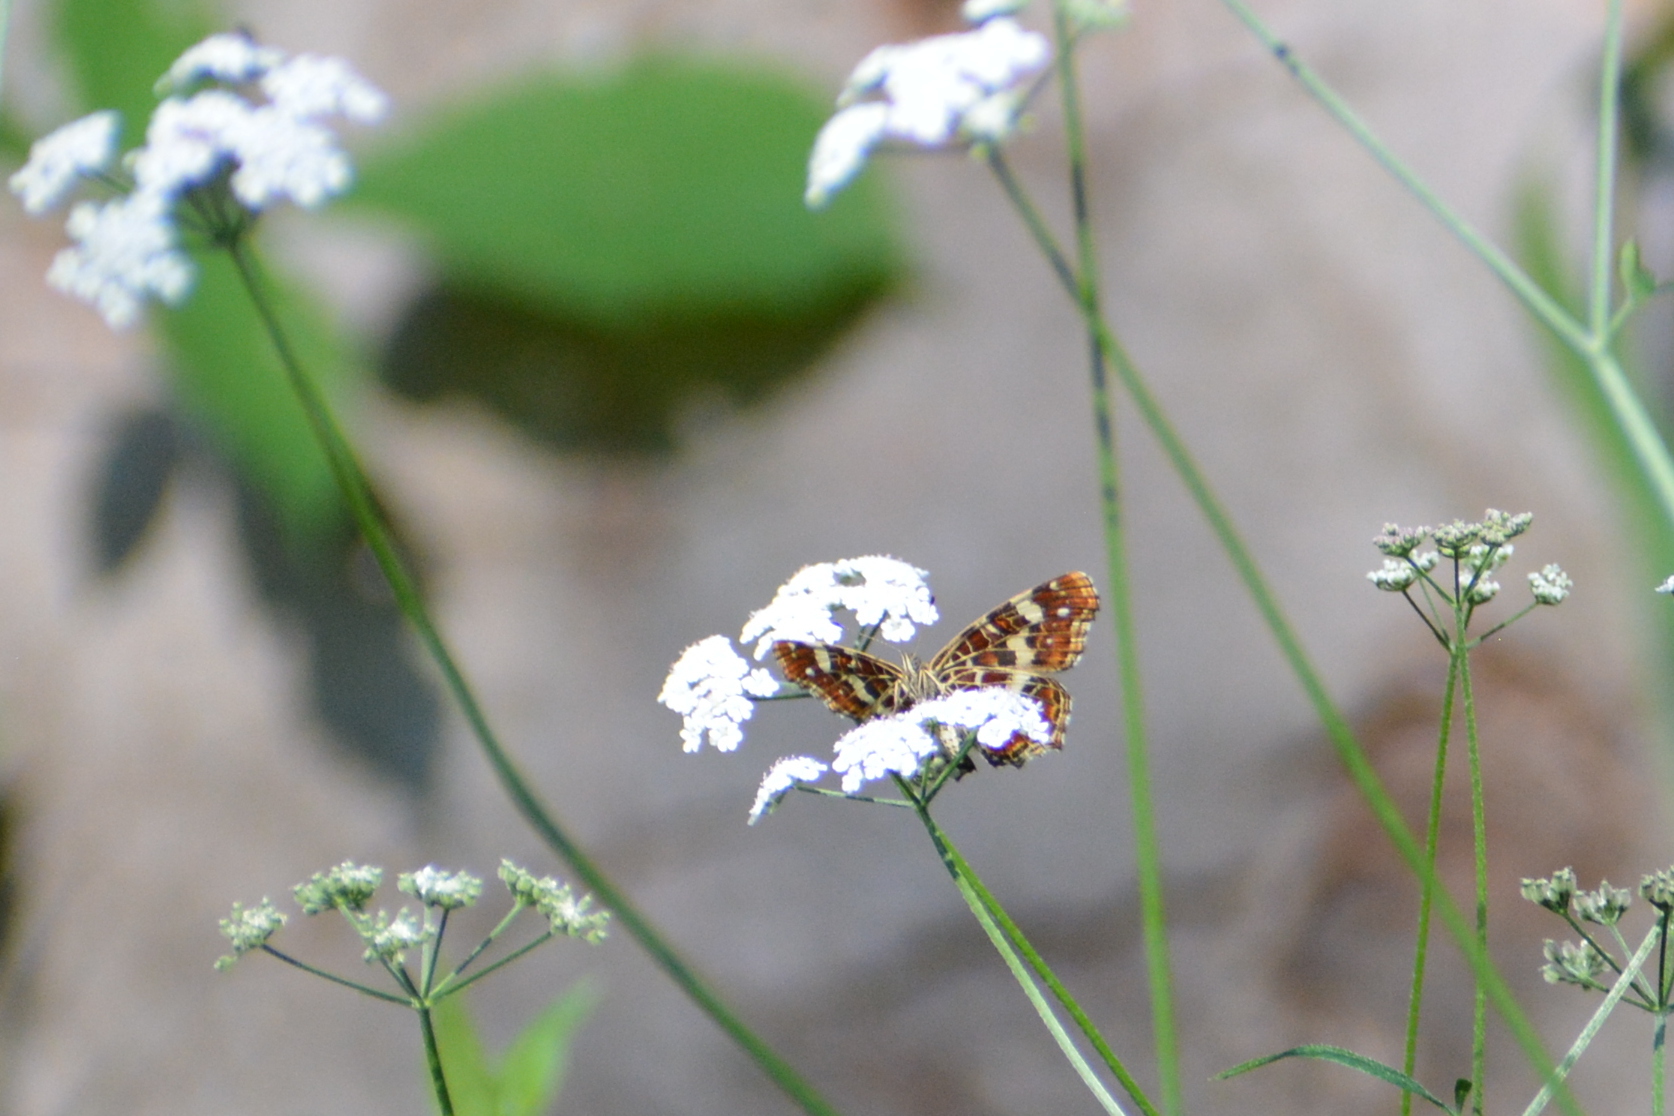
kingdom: Animalia
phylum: Arthropoda
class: Insecta
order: Lepidoptera
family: Nymphalidae
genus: Araschnia
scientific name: Araschnia levana
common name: Map butterfly
